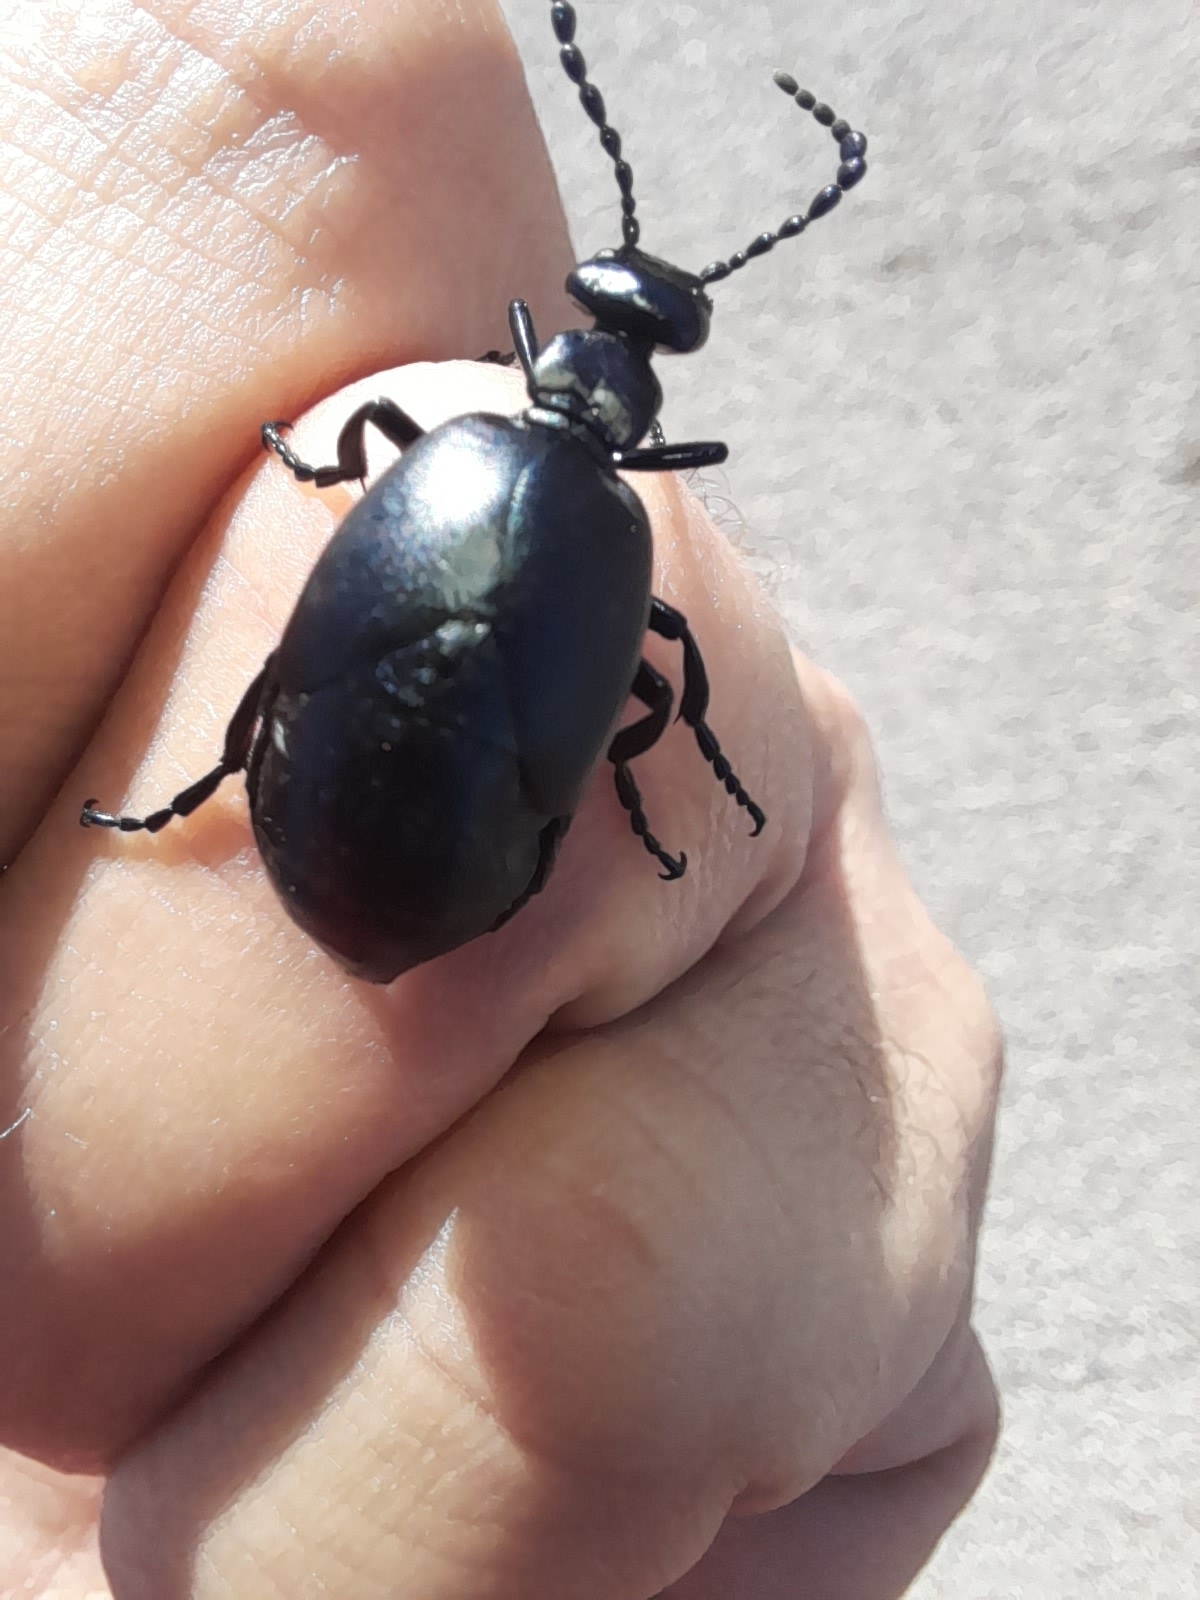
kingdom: Animalia
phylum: Arthropoda
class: Insecta
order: Coleoptera
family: Meloidae
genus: Meloe
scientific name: Meloe autumnalis
